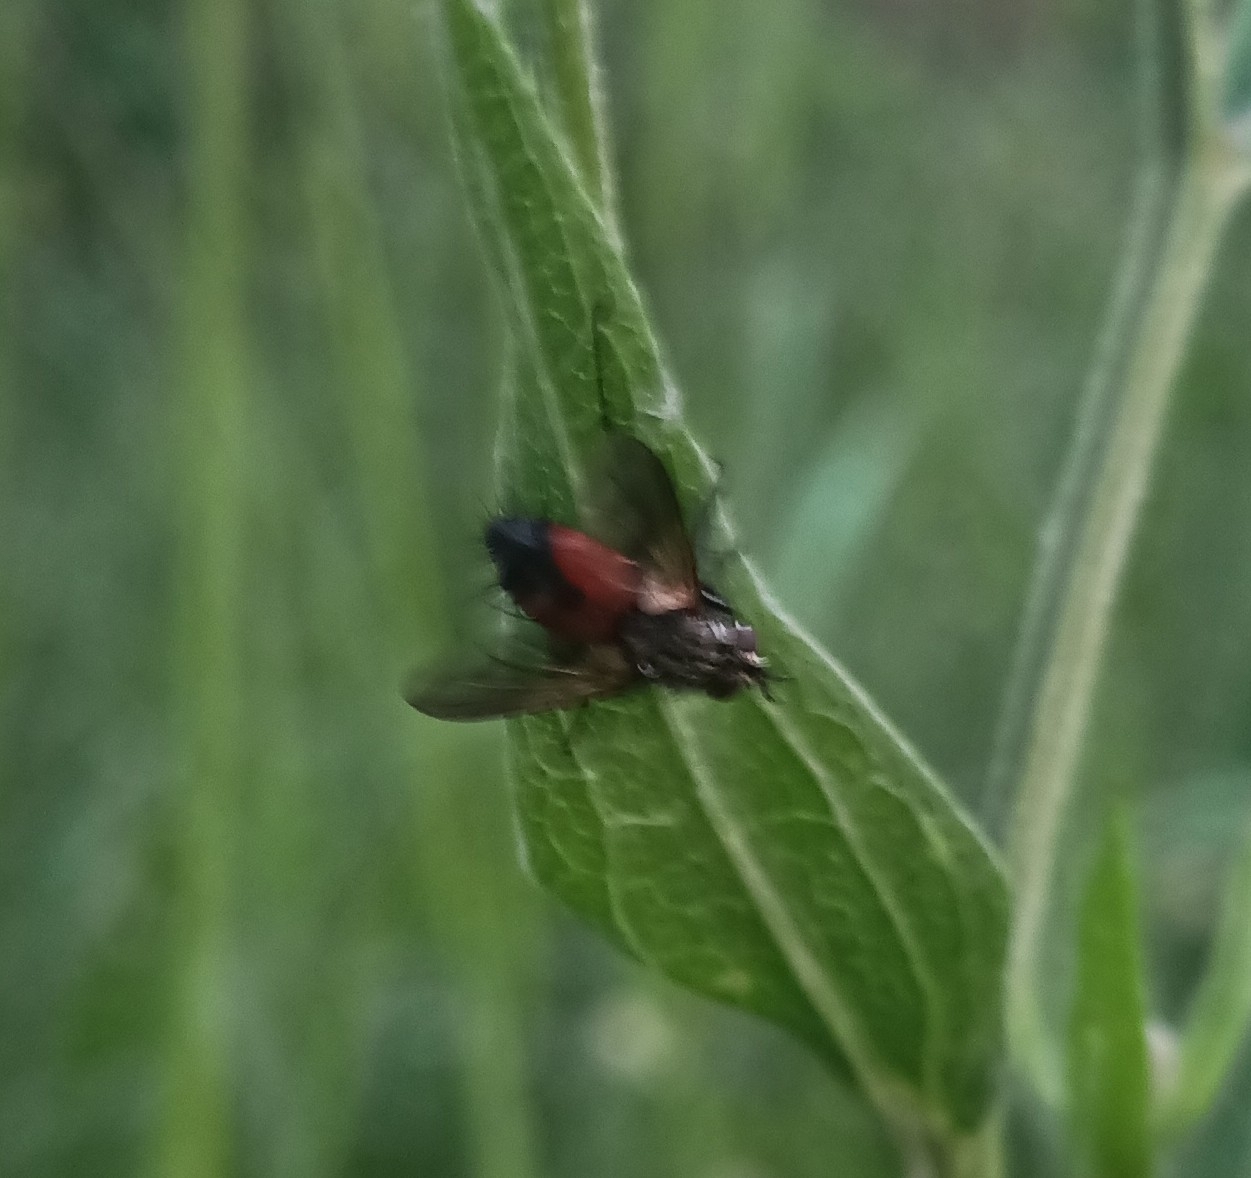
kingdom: Animalia
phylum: Arthropoda
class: Insecta
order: Diptera
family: Tachinidae
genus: Eriothrix
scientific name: Eriothrix rufomaculatus
